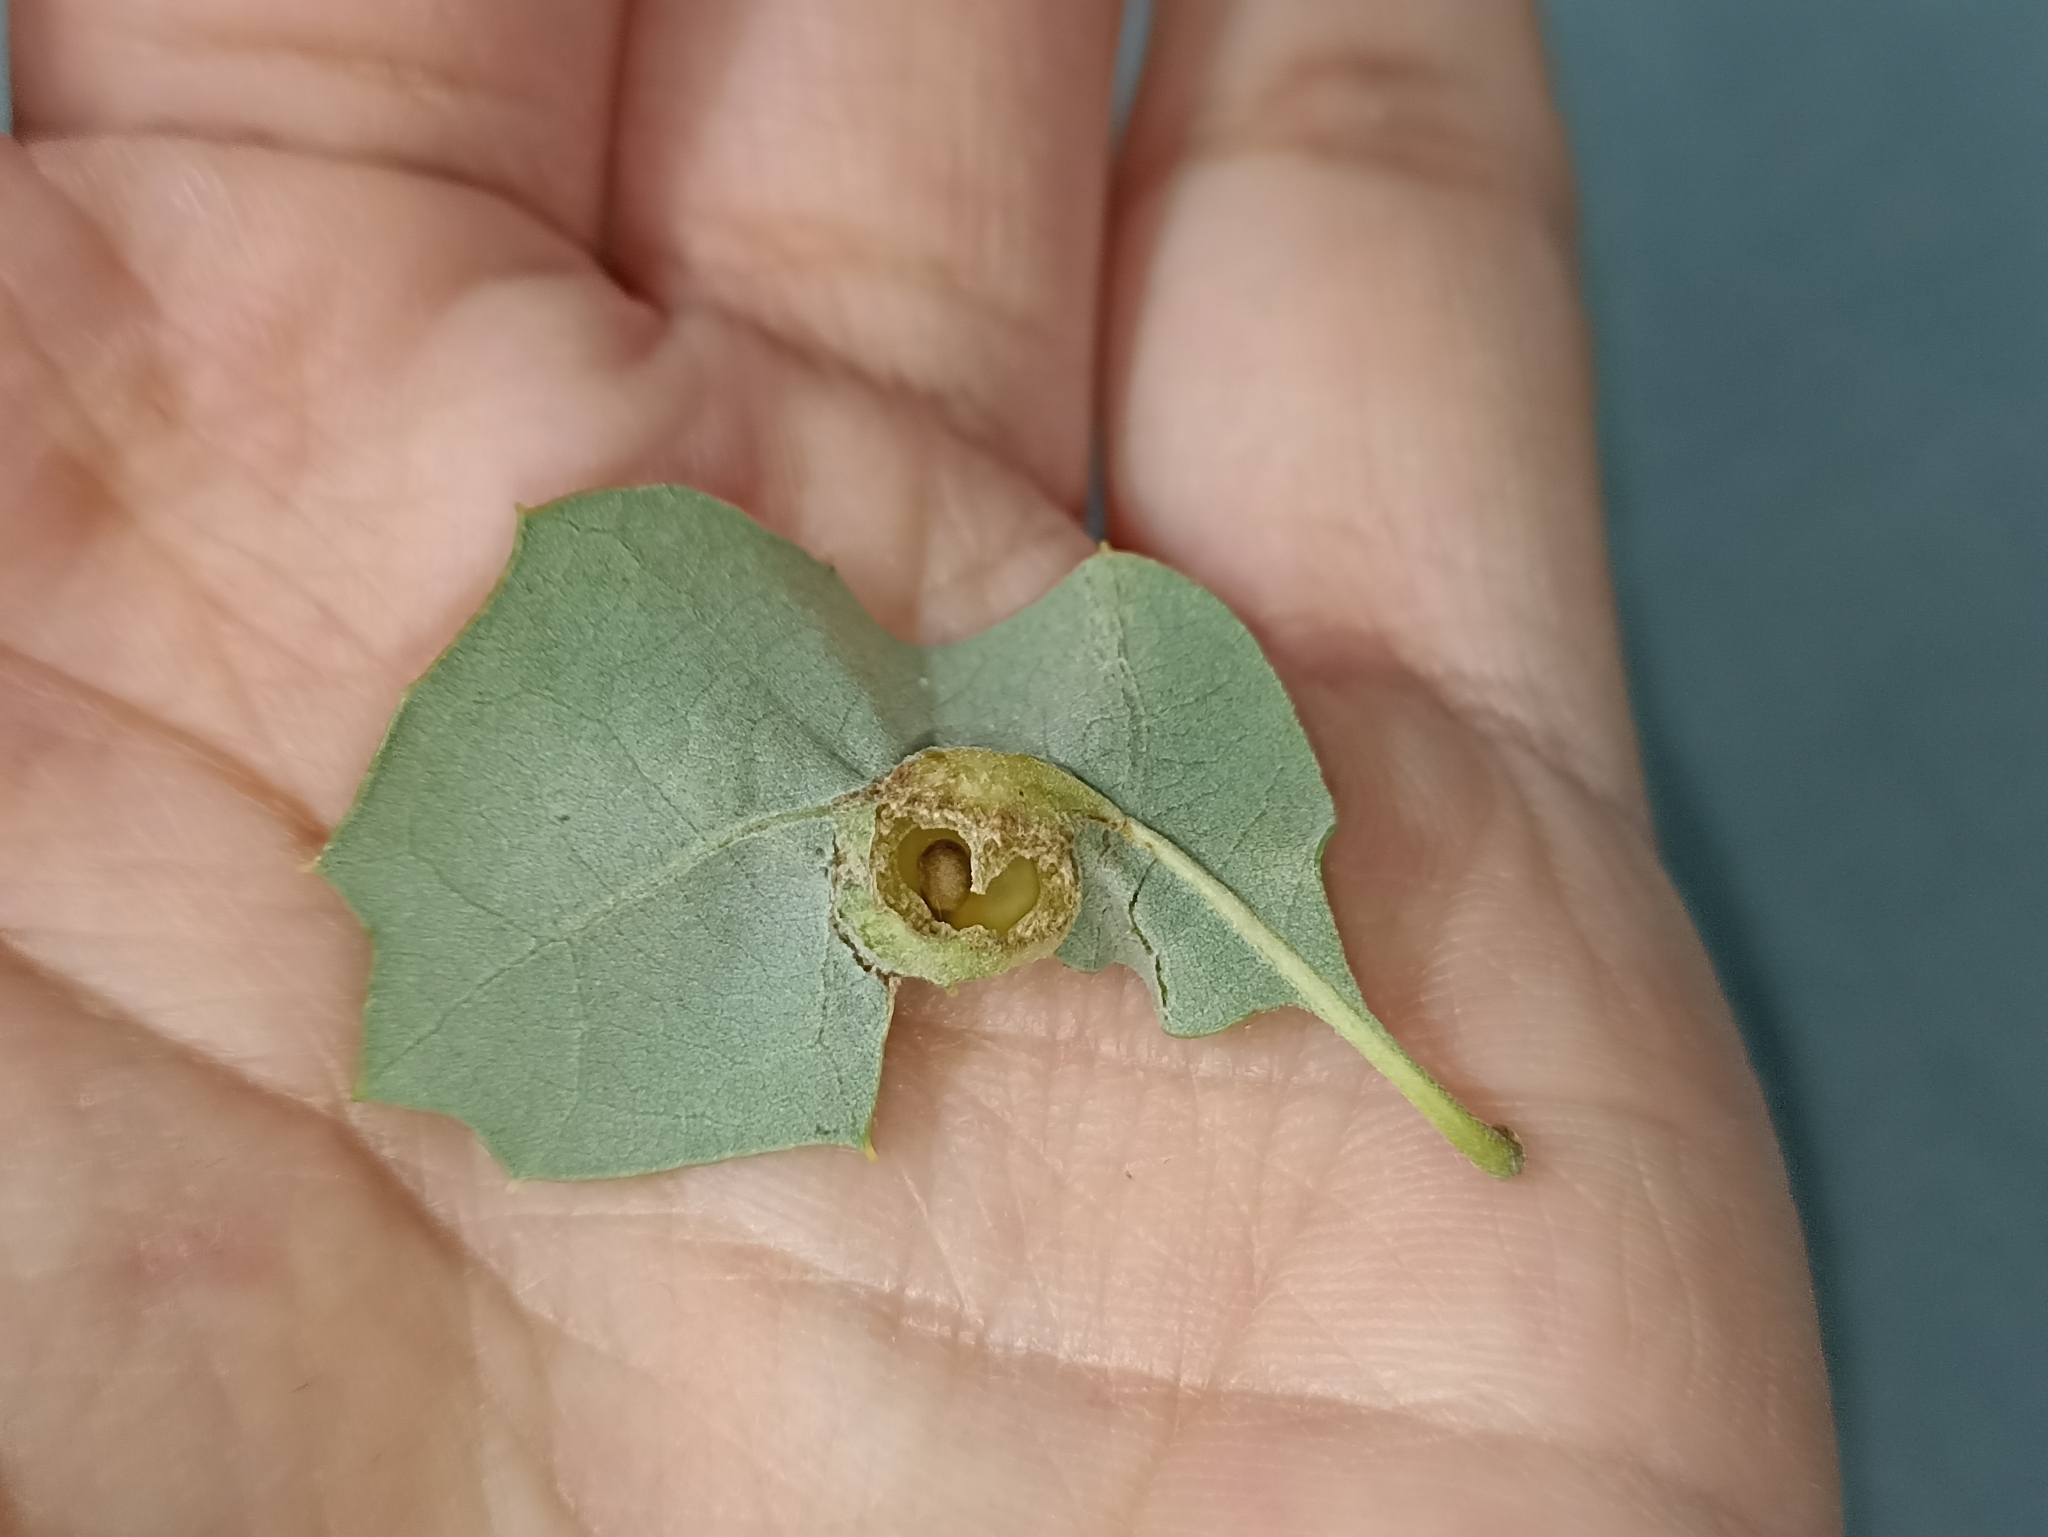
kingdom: Animalia
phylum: Arthropoda
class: Insecta
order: Hymenoptera
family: Cynipidae
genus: Andricus
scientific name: Andricus curvator
